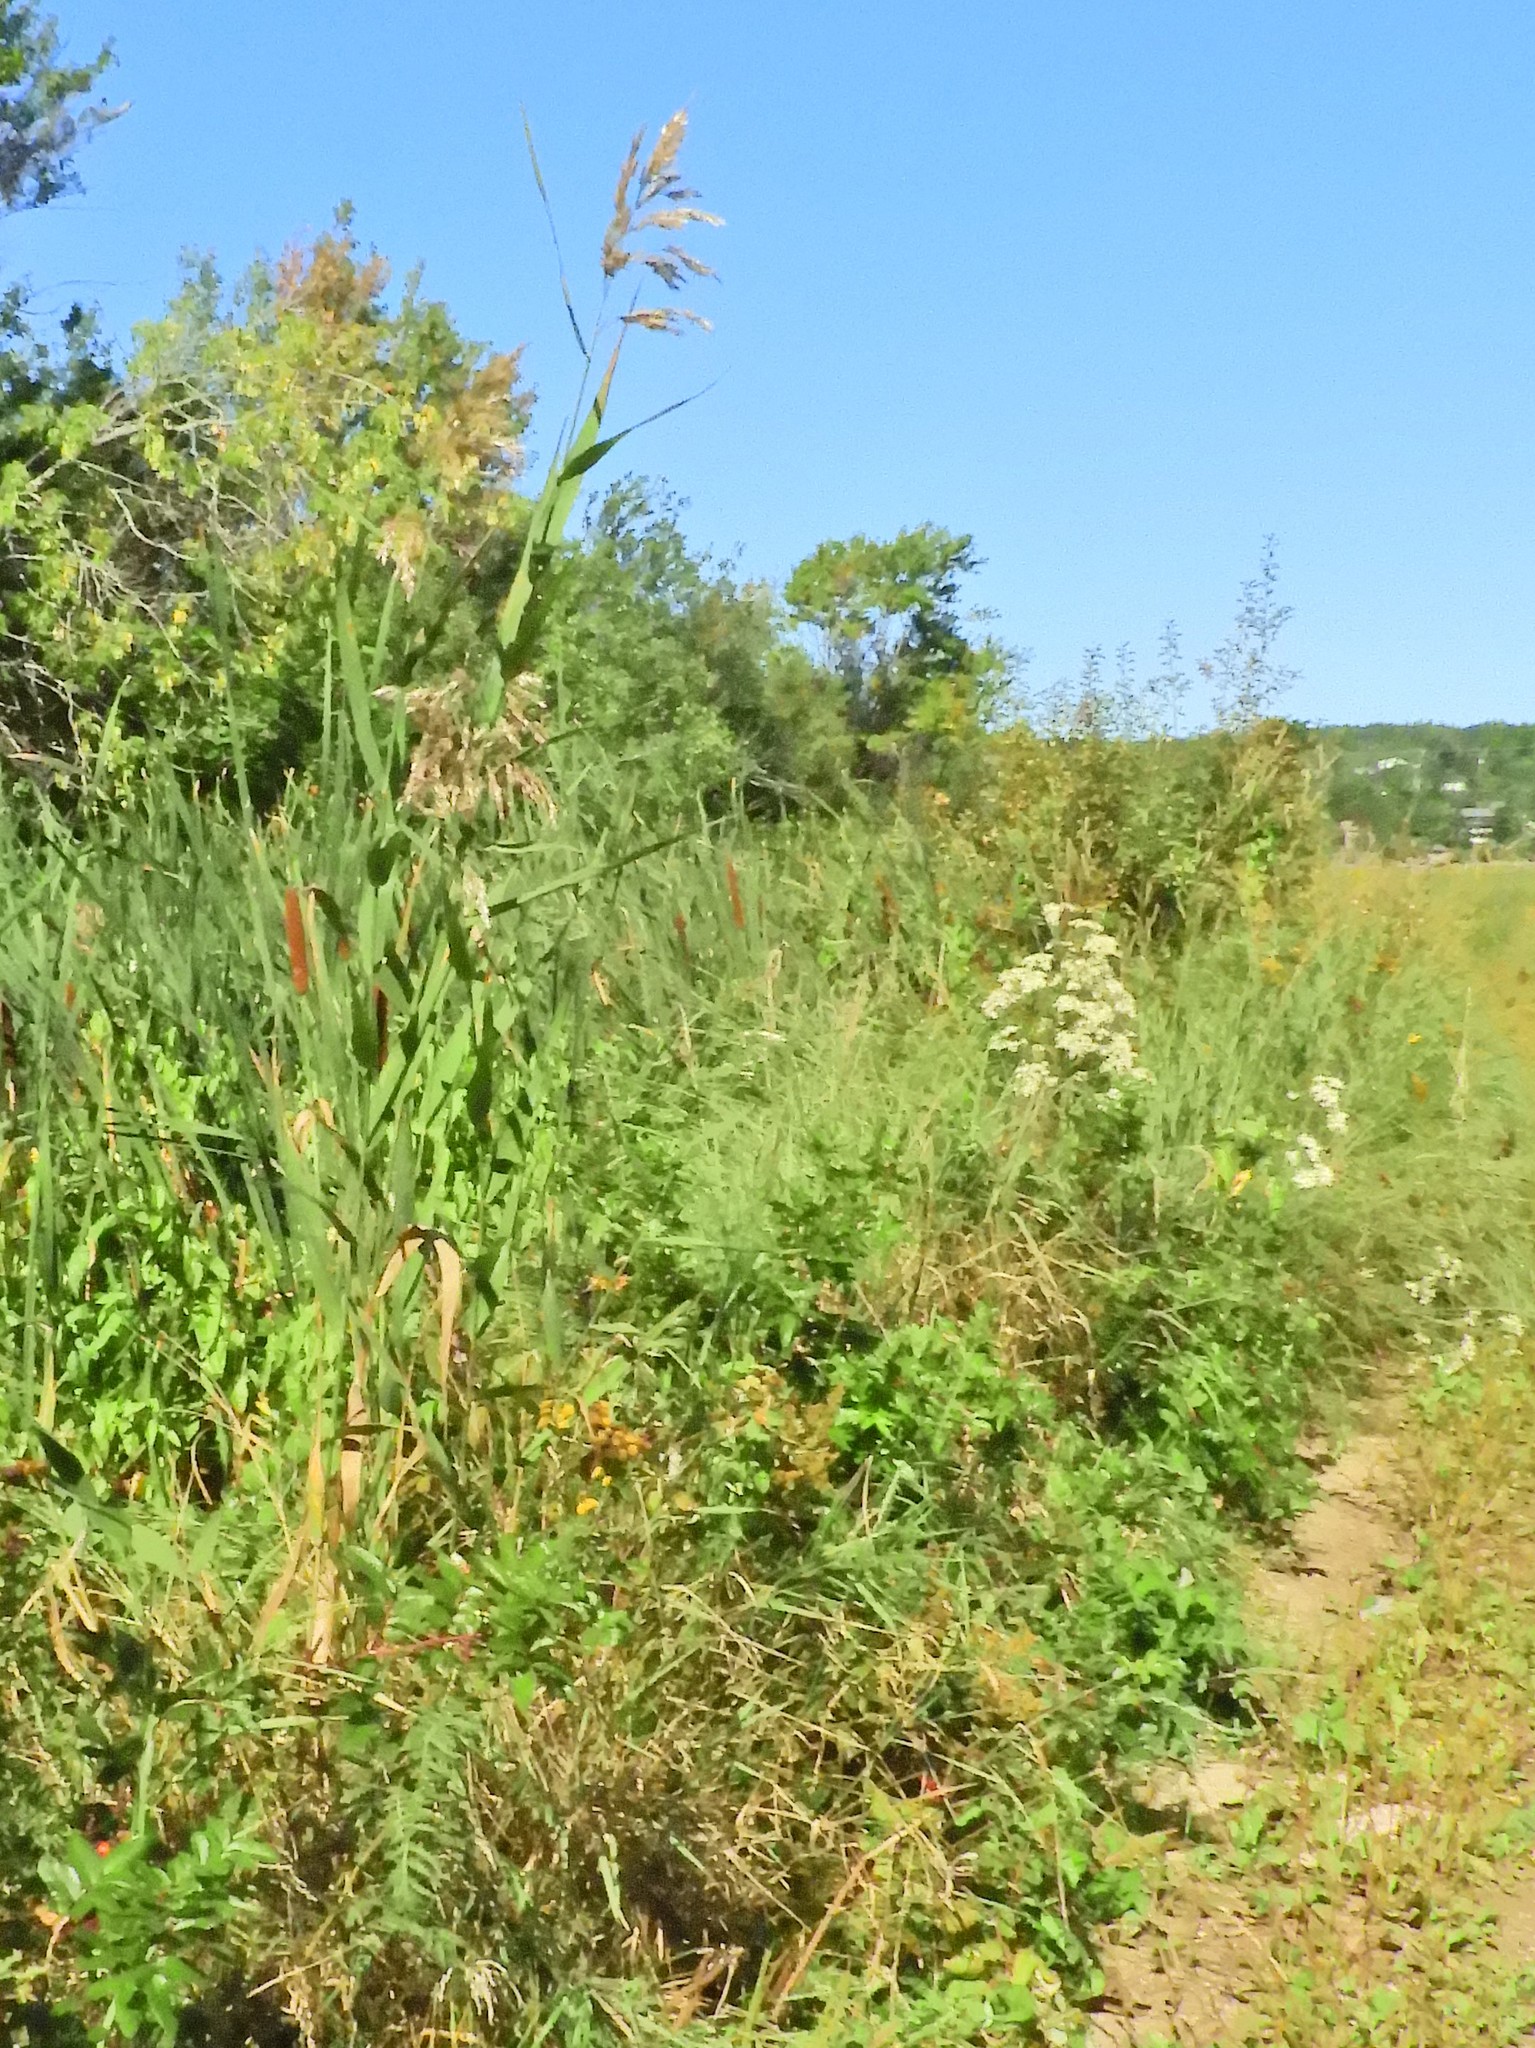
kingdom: Plantae
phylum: Tracheophyta
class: Liliopsida
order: Poales
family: Poaceae
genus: Phragmites
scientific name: Phragmites australis
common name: Common reed
